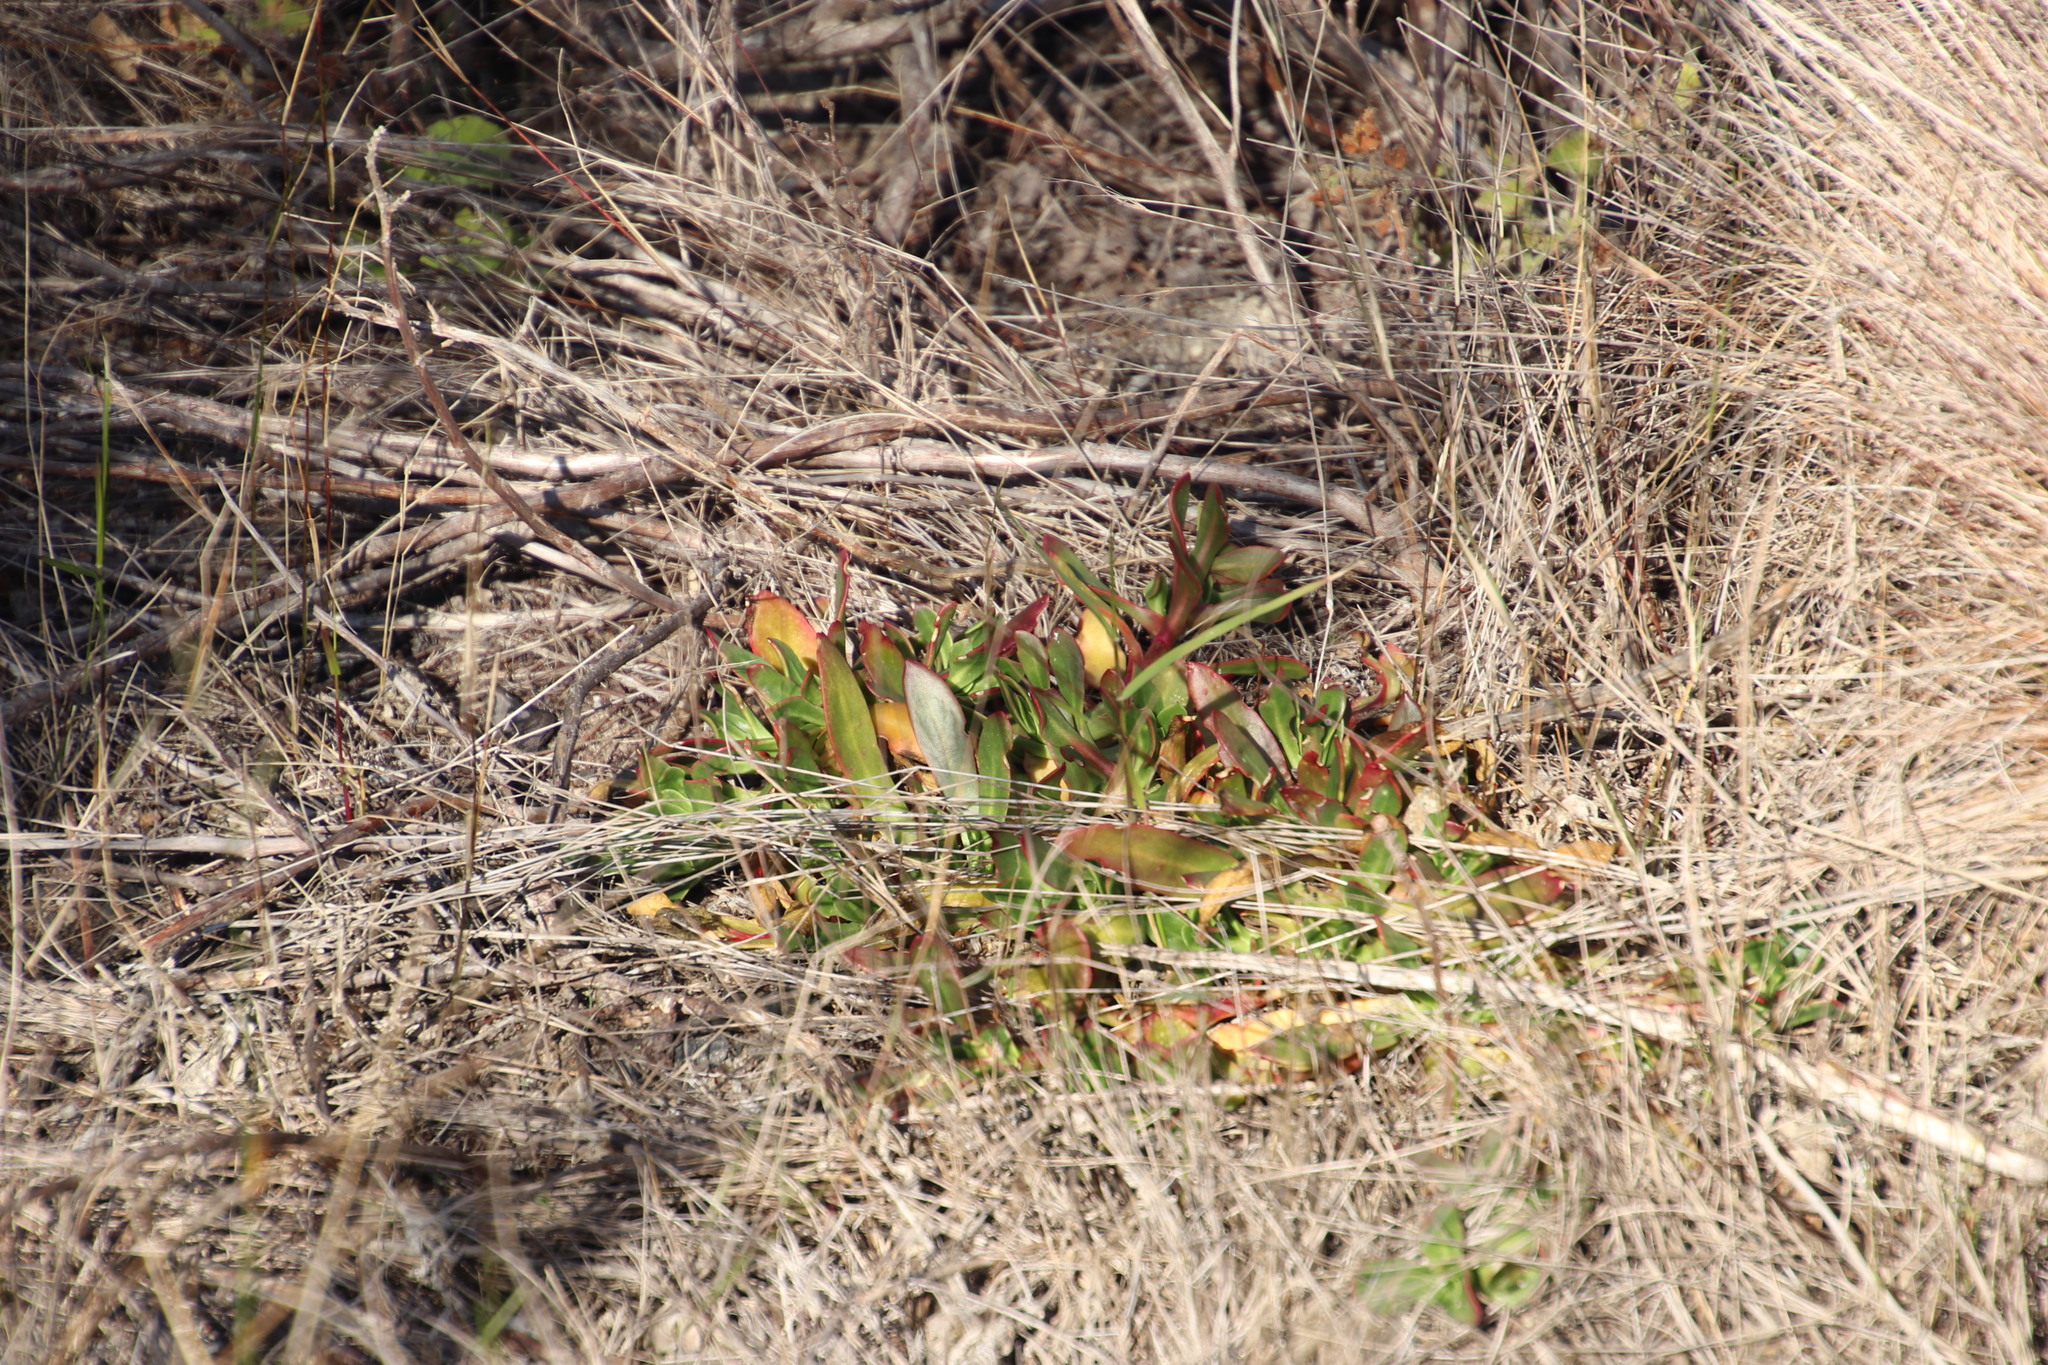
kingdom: Plantae
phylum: Tracheophyta
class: Magnoliopsida
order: Caryophyllales
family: Aizoaceae
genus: Skiatophytum
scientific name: Skiatophytum tripolium
